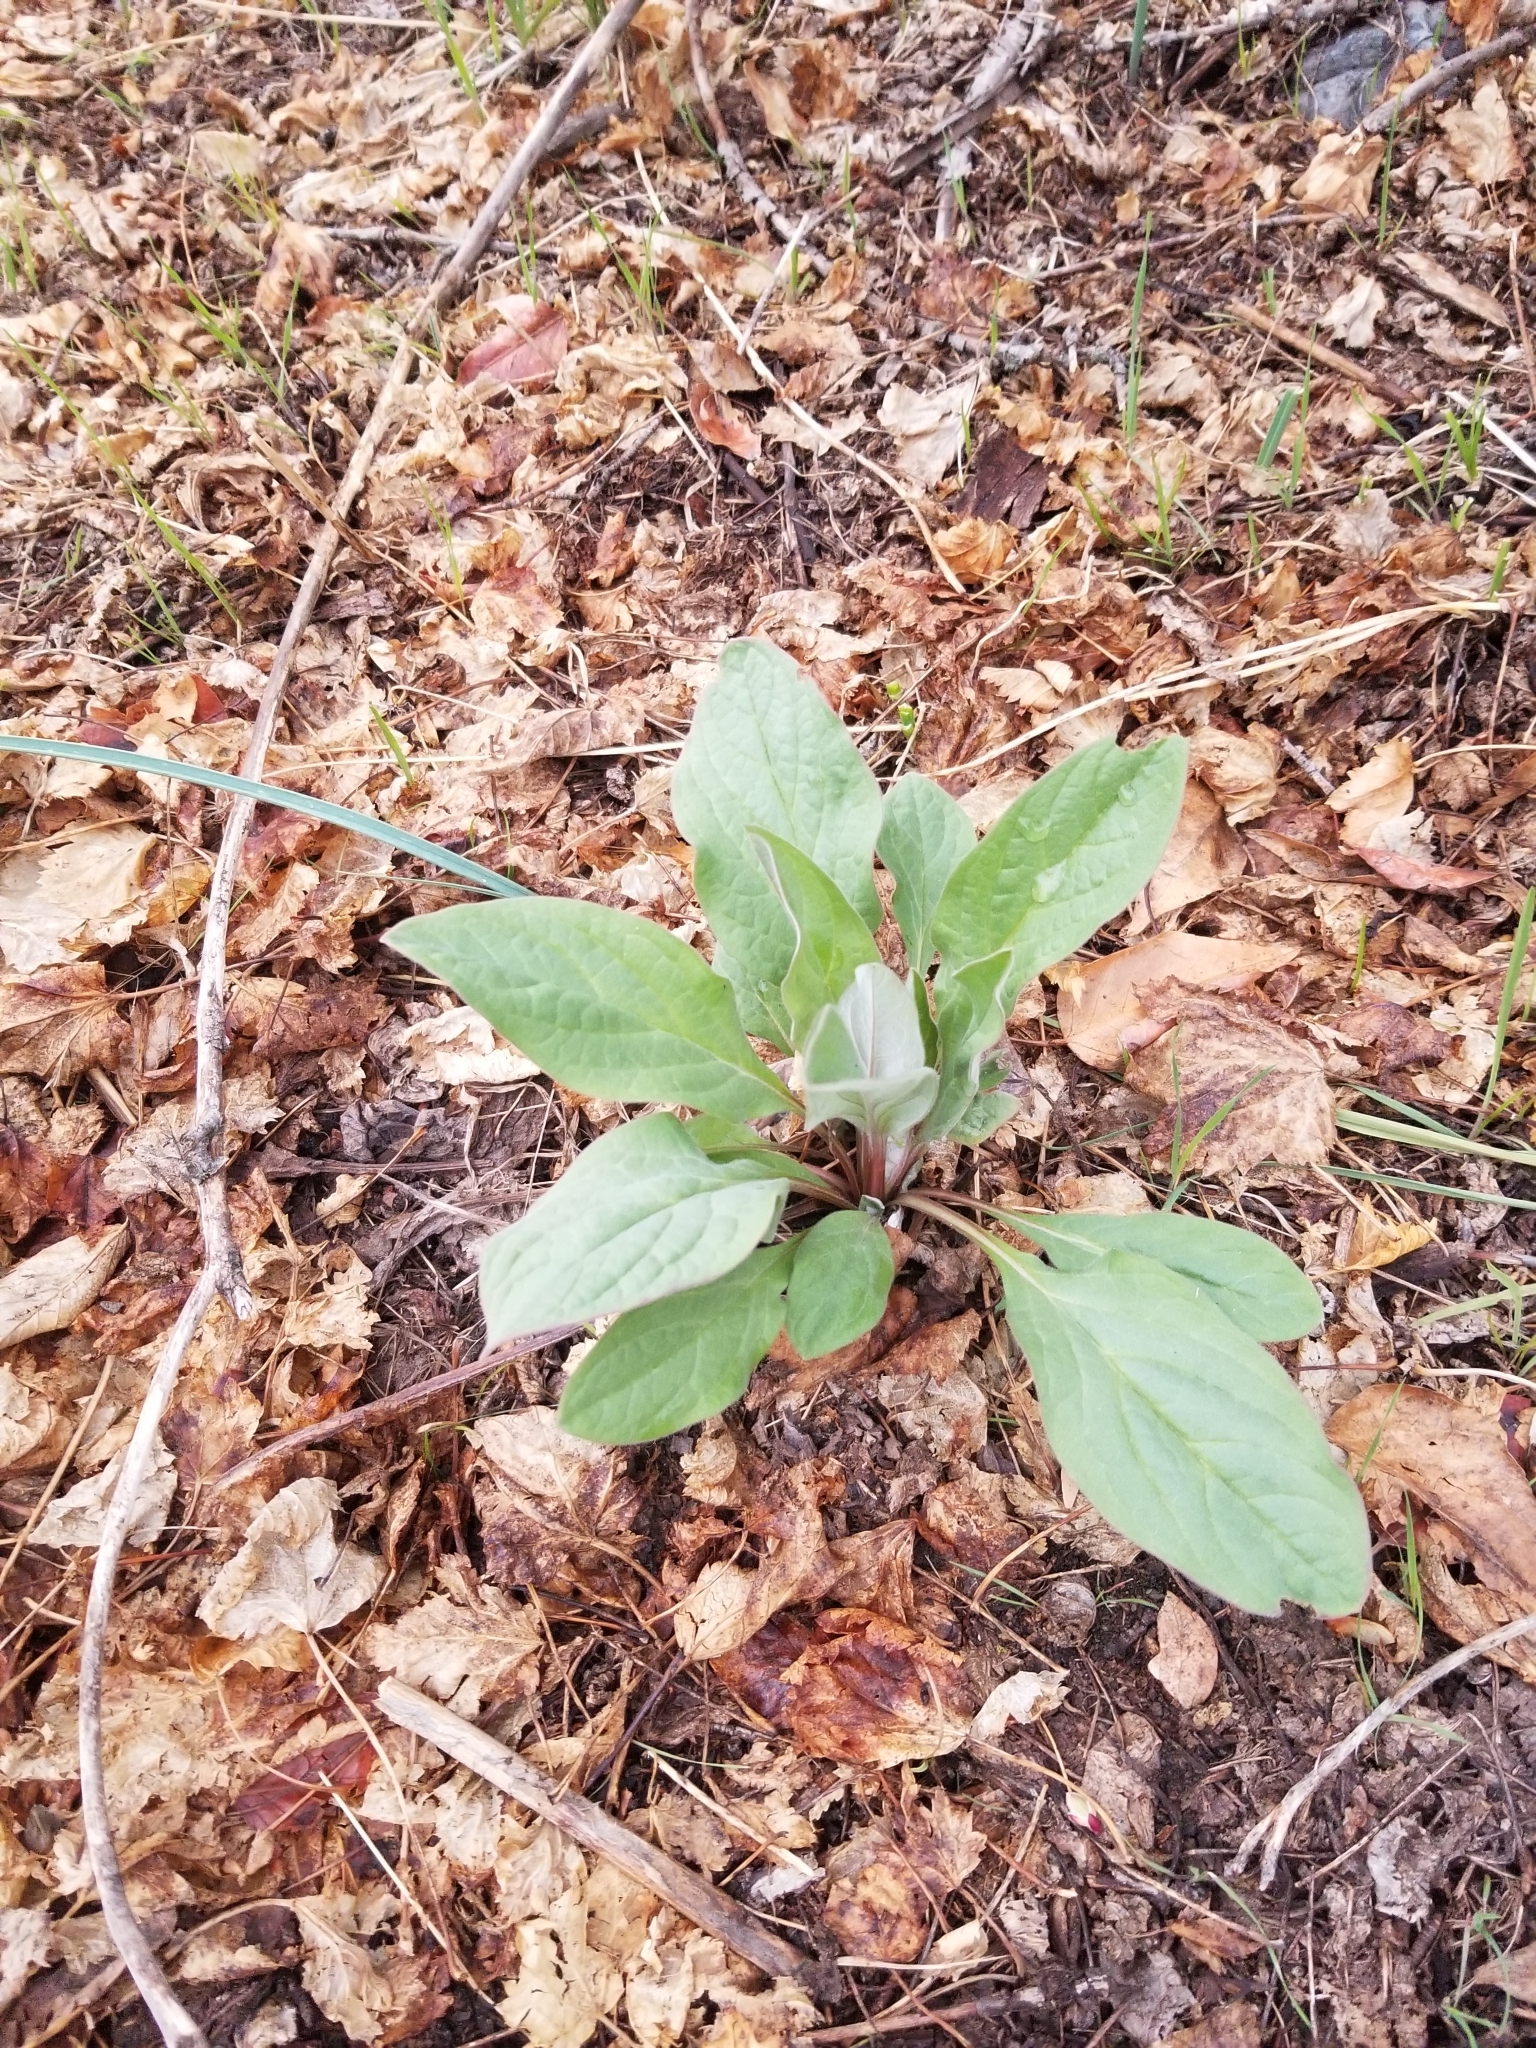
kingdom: Plantae
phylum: Tracheophyta
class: Magnoliopsida
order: Boraginales
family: Boraginaceae
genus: Cynoglossum
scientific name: Cynoglossum officinale
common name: Hound's-tongue
